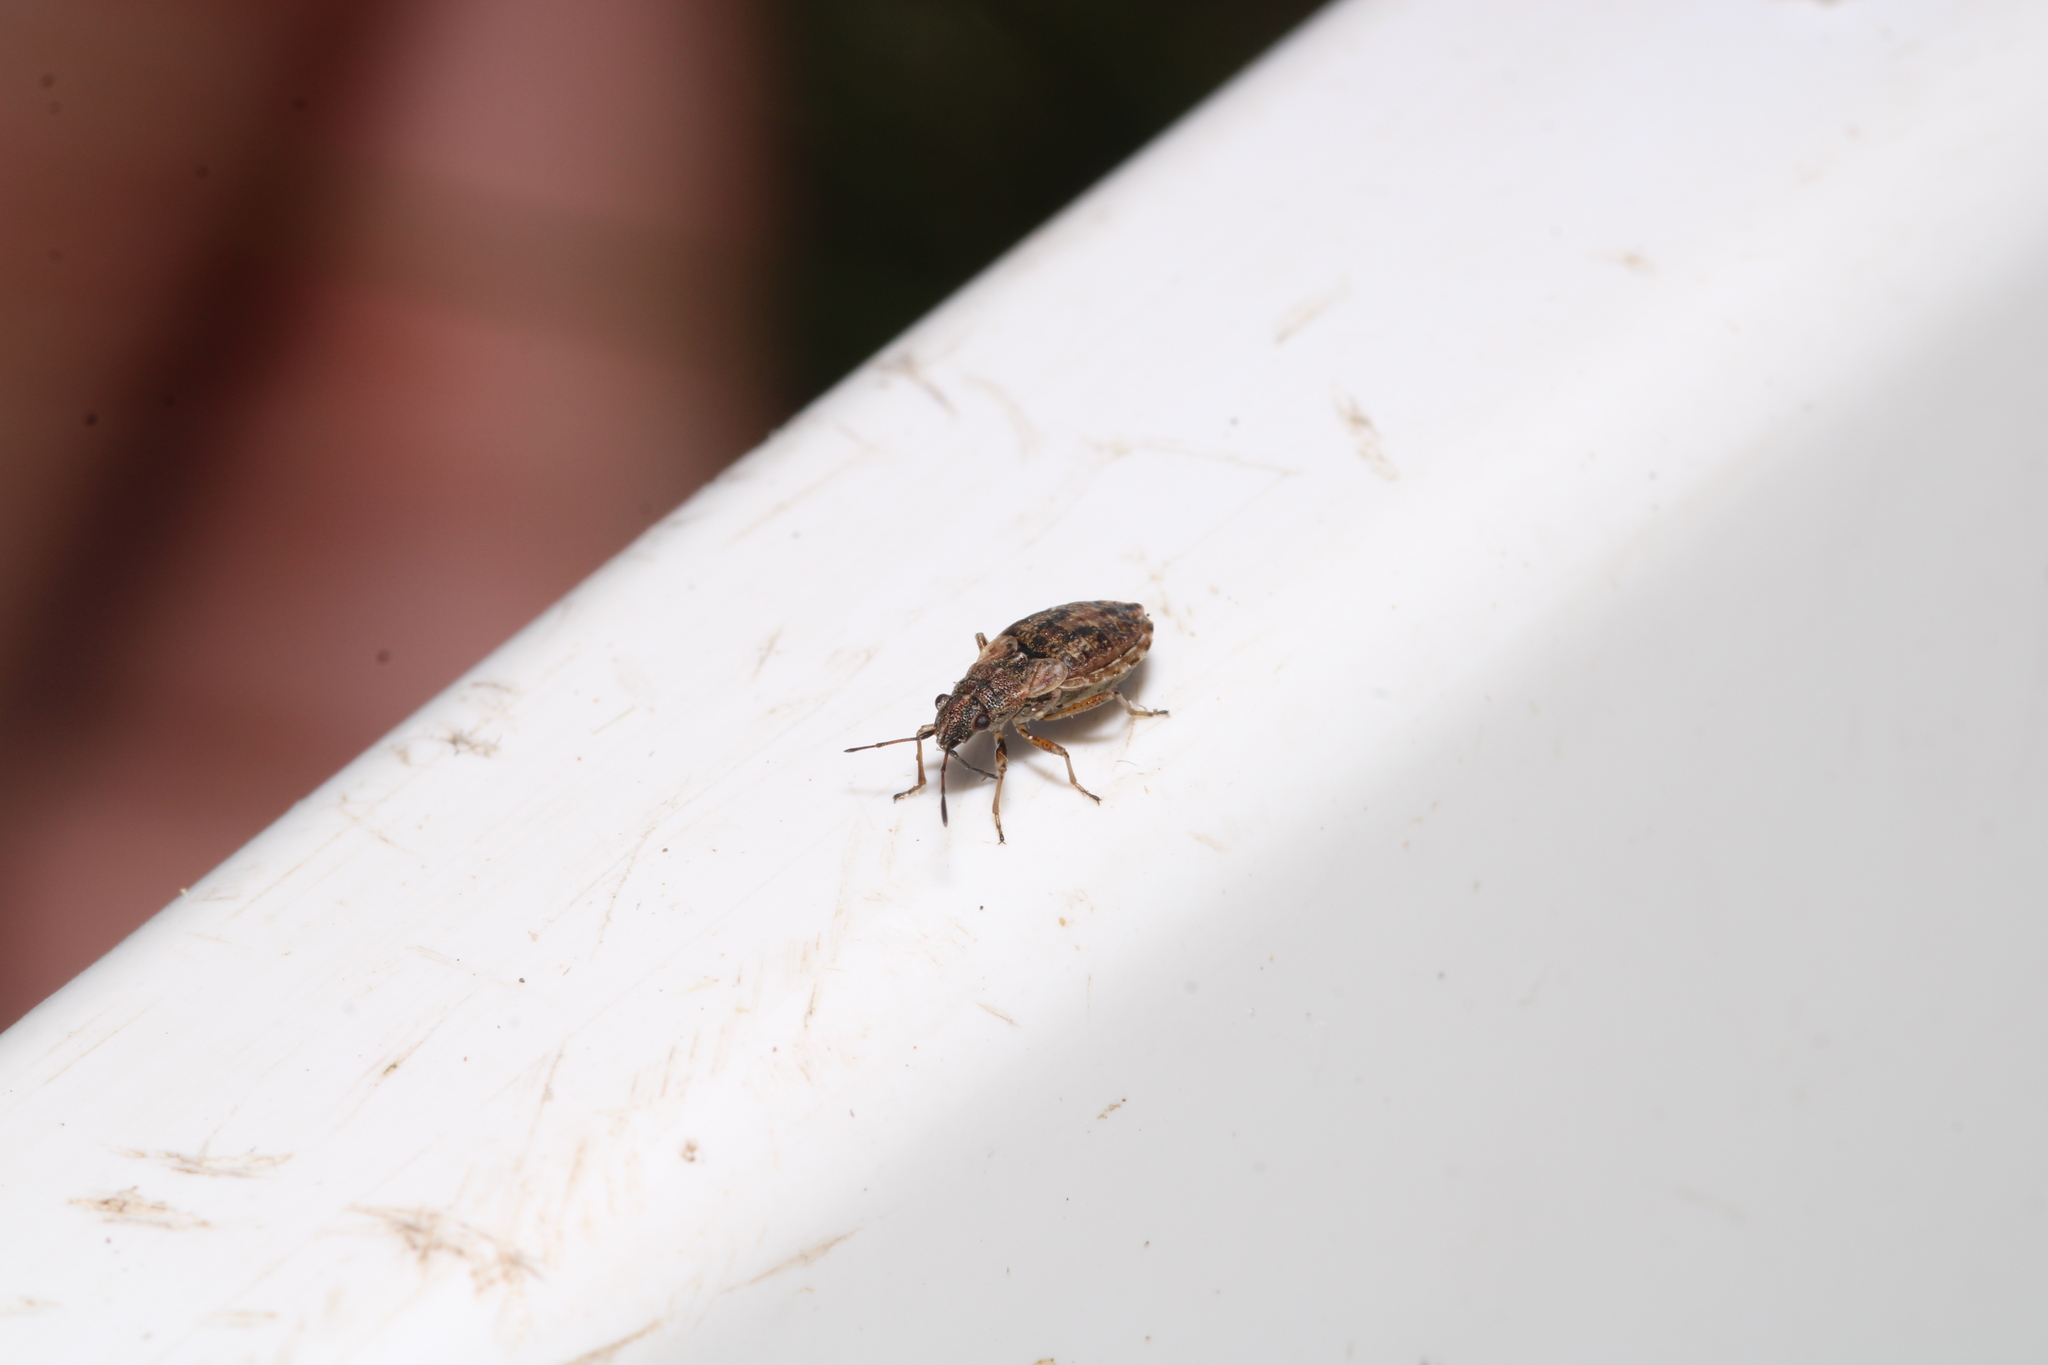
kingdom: Animalia
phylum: Arthropoda
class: Insecta
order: Hemiptera
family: Lygaeidae
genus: Nithecus
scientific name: Nithecus jacobaeae
